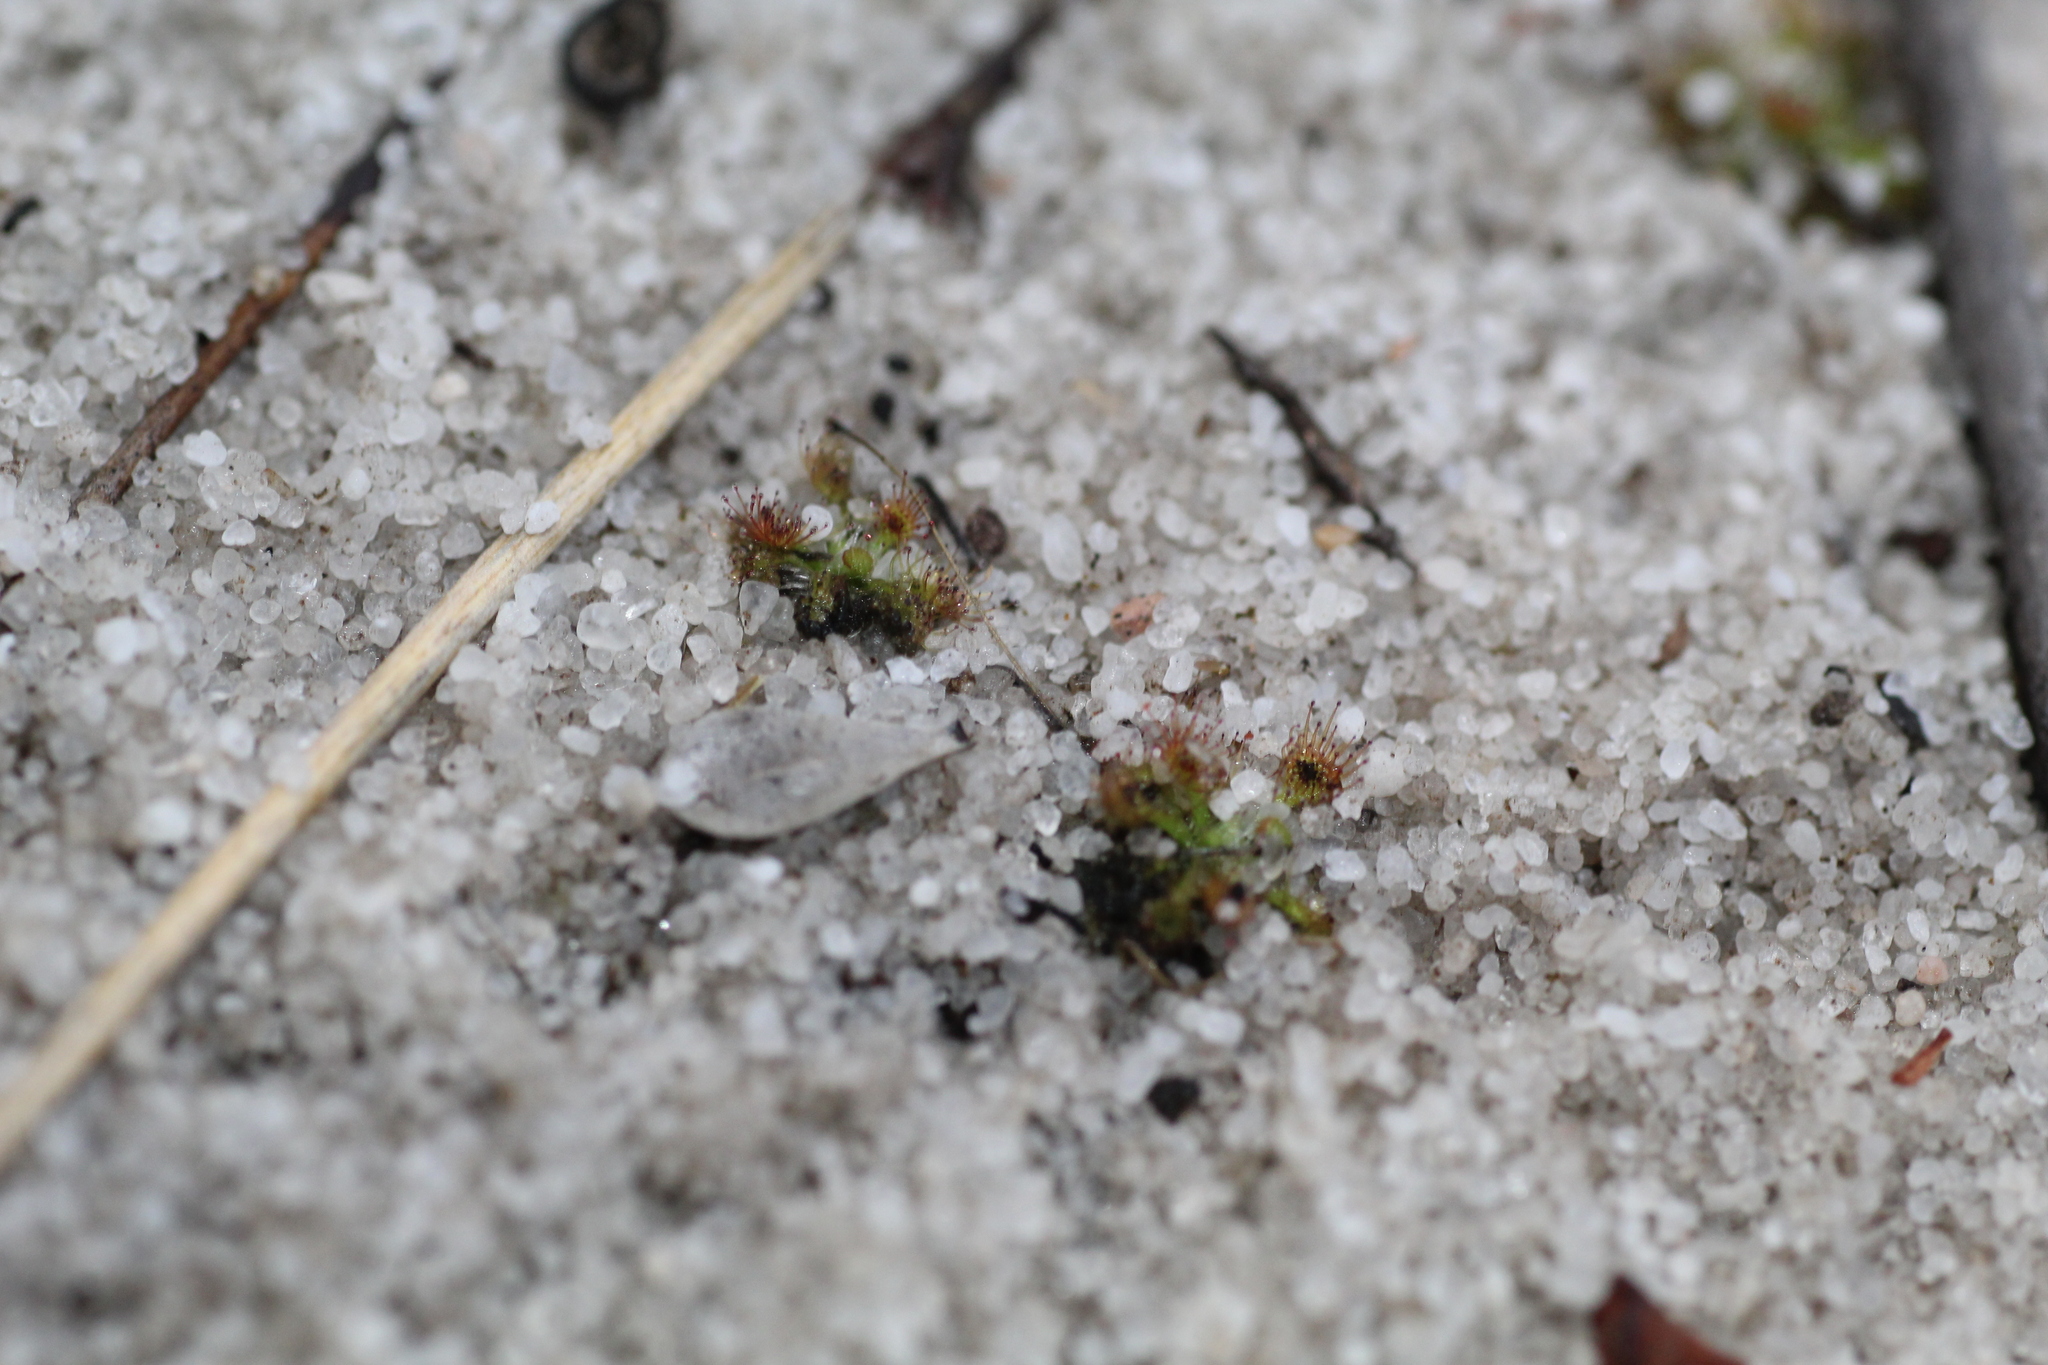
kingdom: Plantae
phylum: Tracheophyta
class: Magnoliopsida
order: Caryophyllales
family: Droseraceae
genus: Drosera
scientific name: Drosera patens
